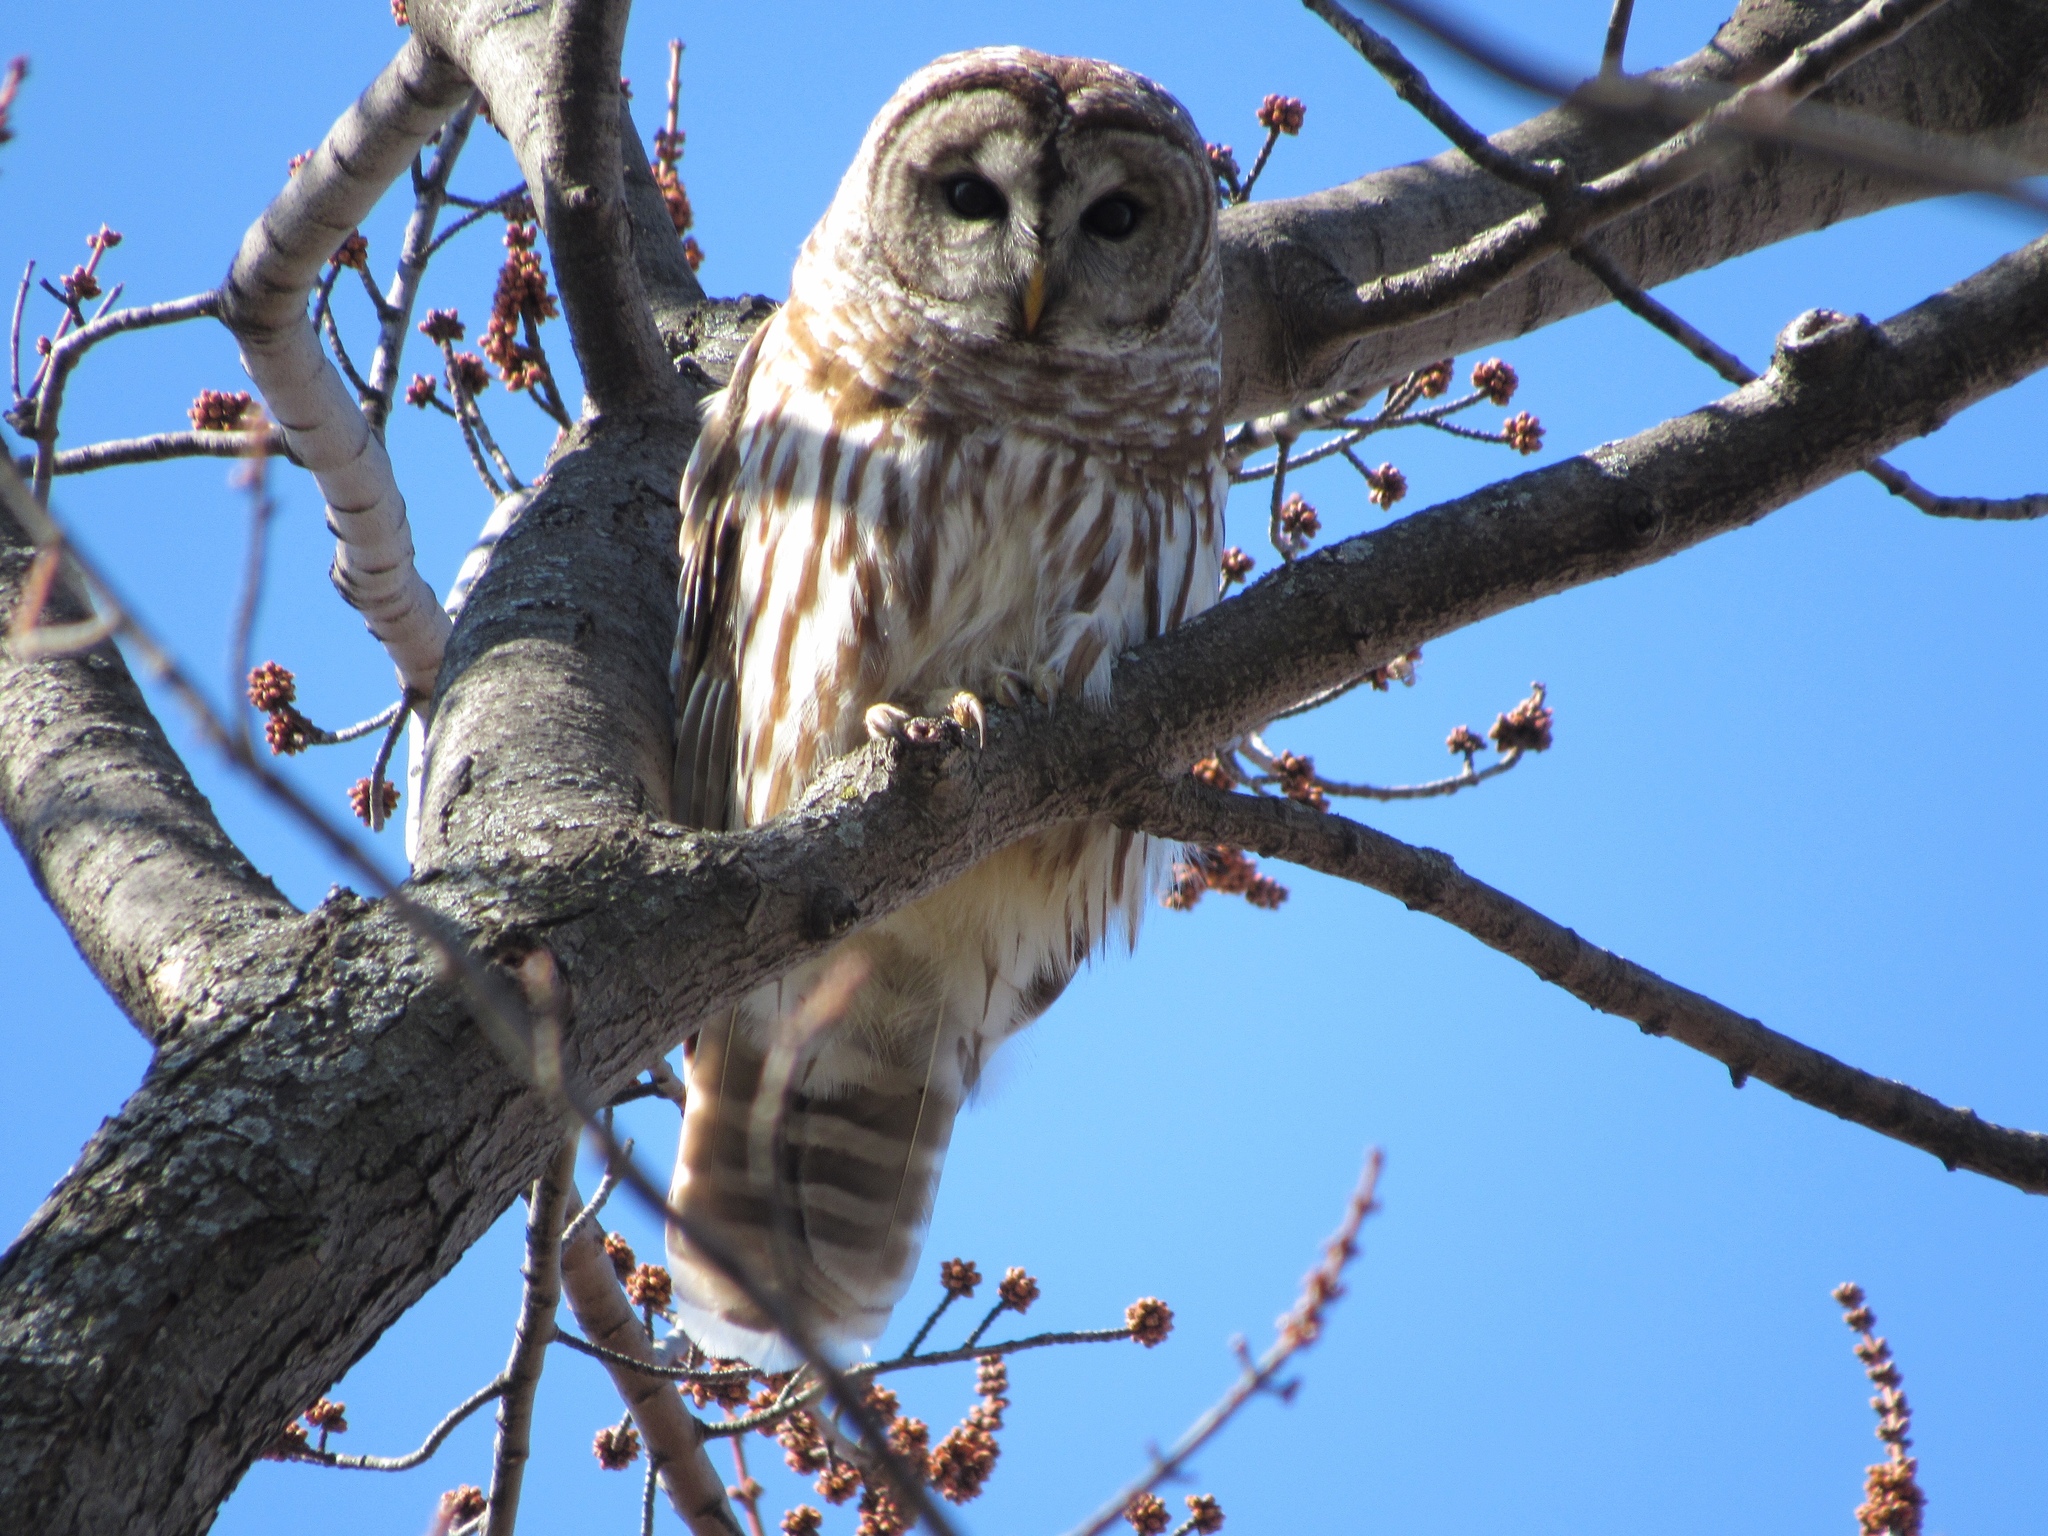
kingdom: Animalia
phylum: Chordata
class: Aves
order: Strigiformes
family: Strigidae
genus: Strix
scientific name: Strix varia
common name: Barred owl
